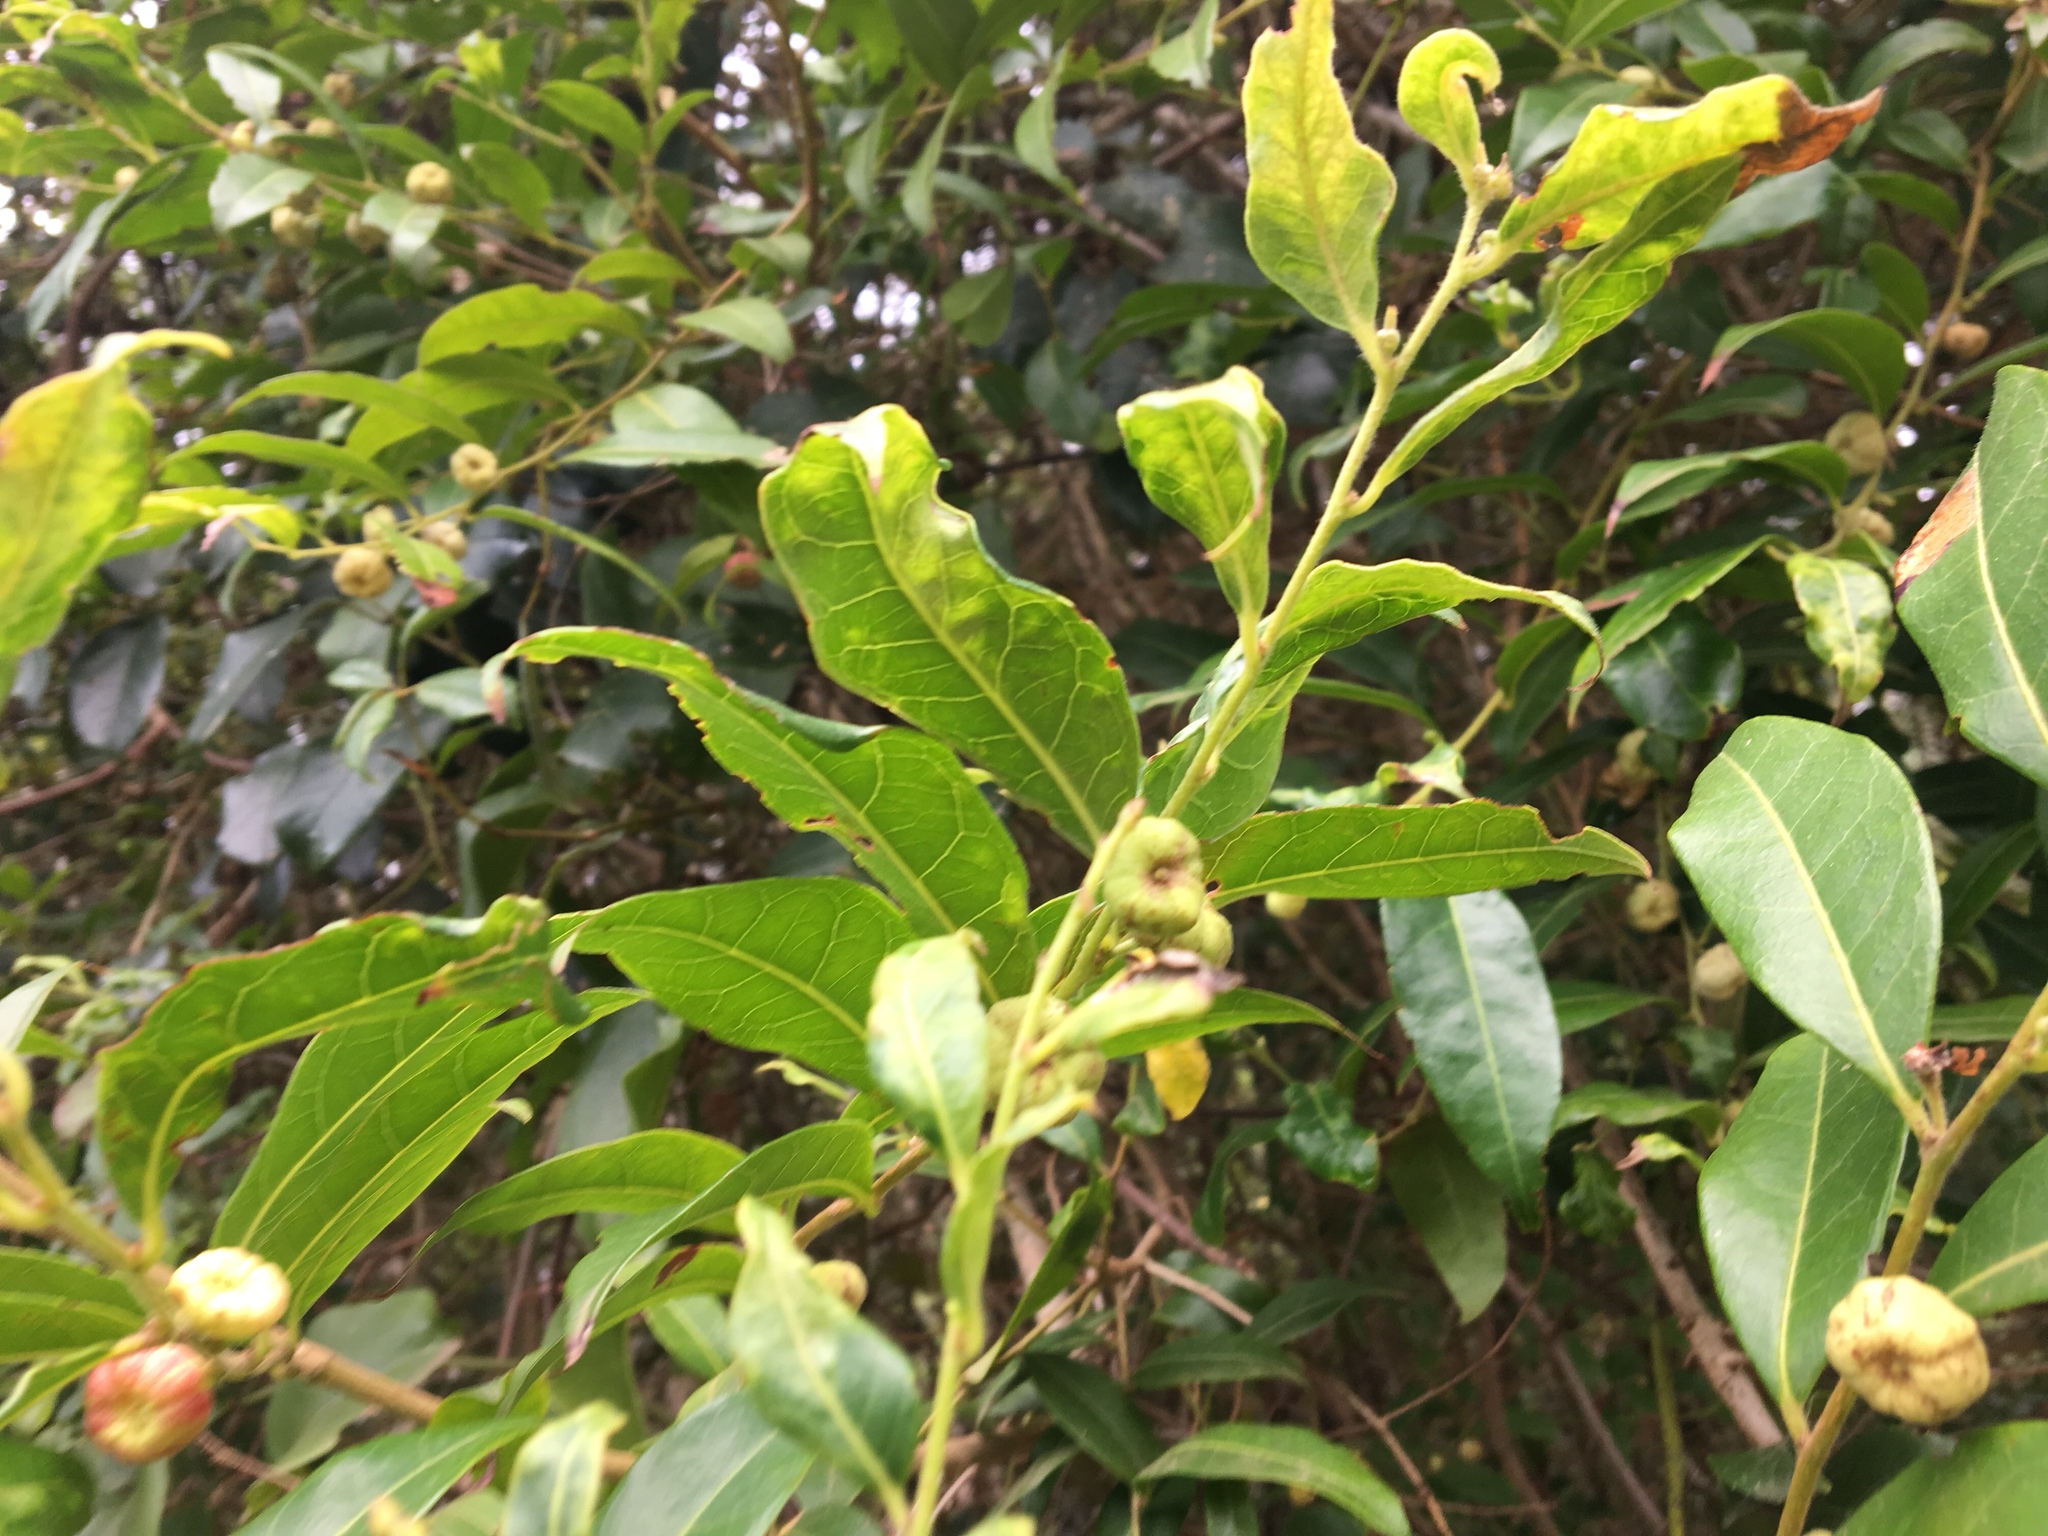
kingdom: Plantae
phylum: Tracheophyta
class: Magnoliopsida
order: Malpighiales
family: Phyllanthaceae
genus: Glochidion
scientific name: Glochidion ferdinandi
